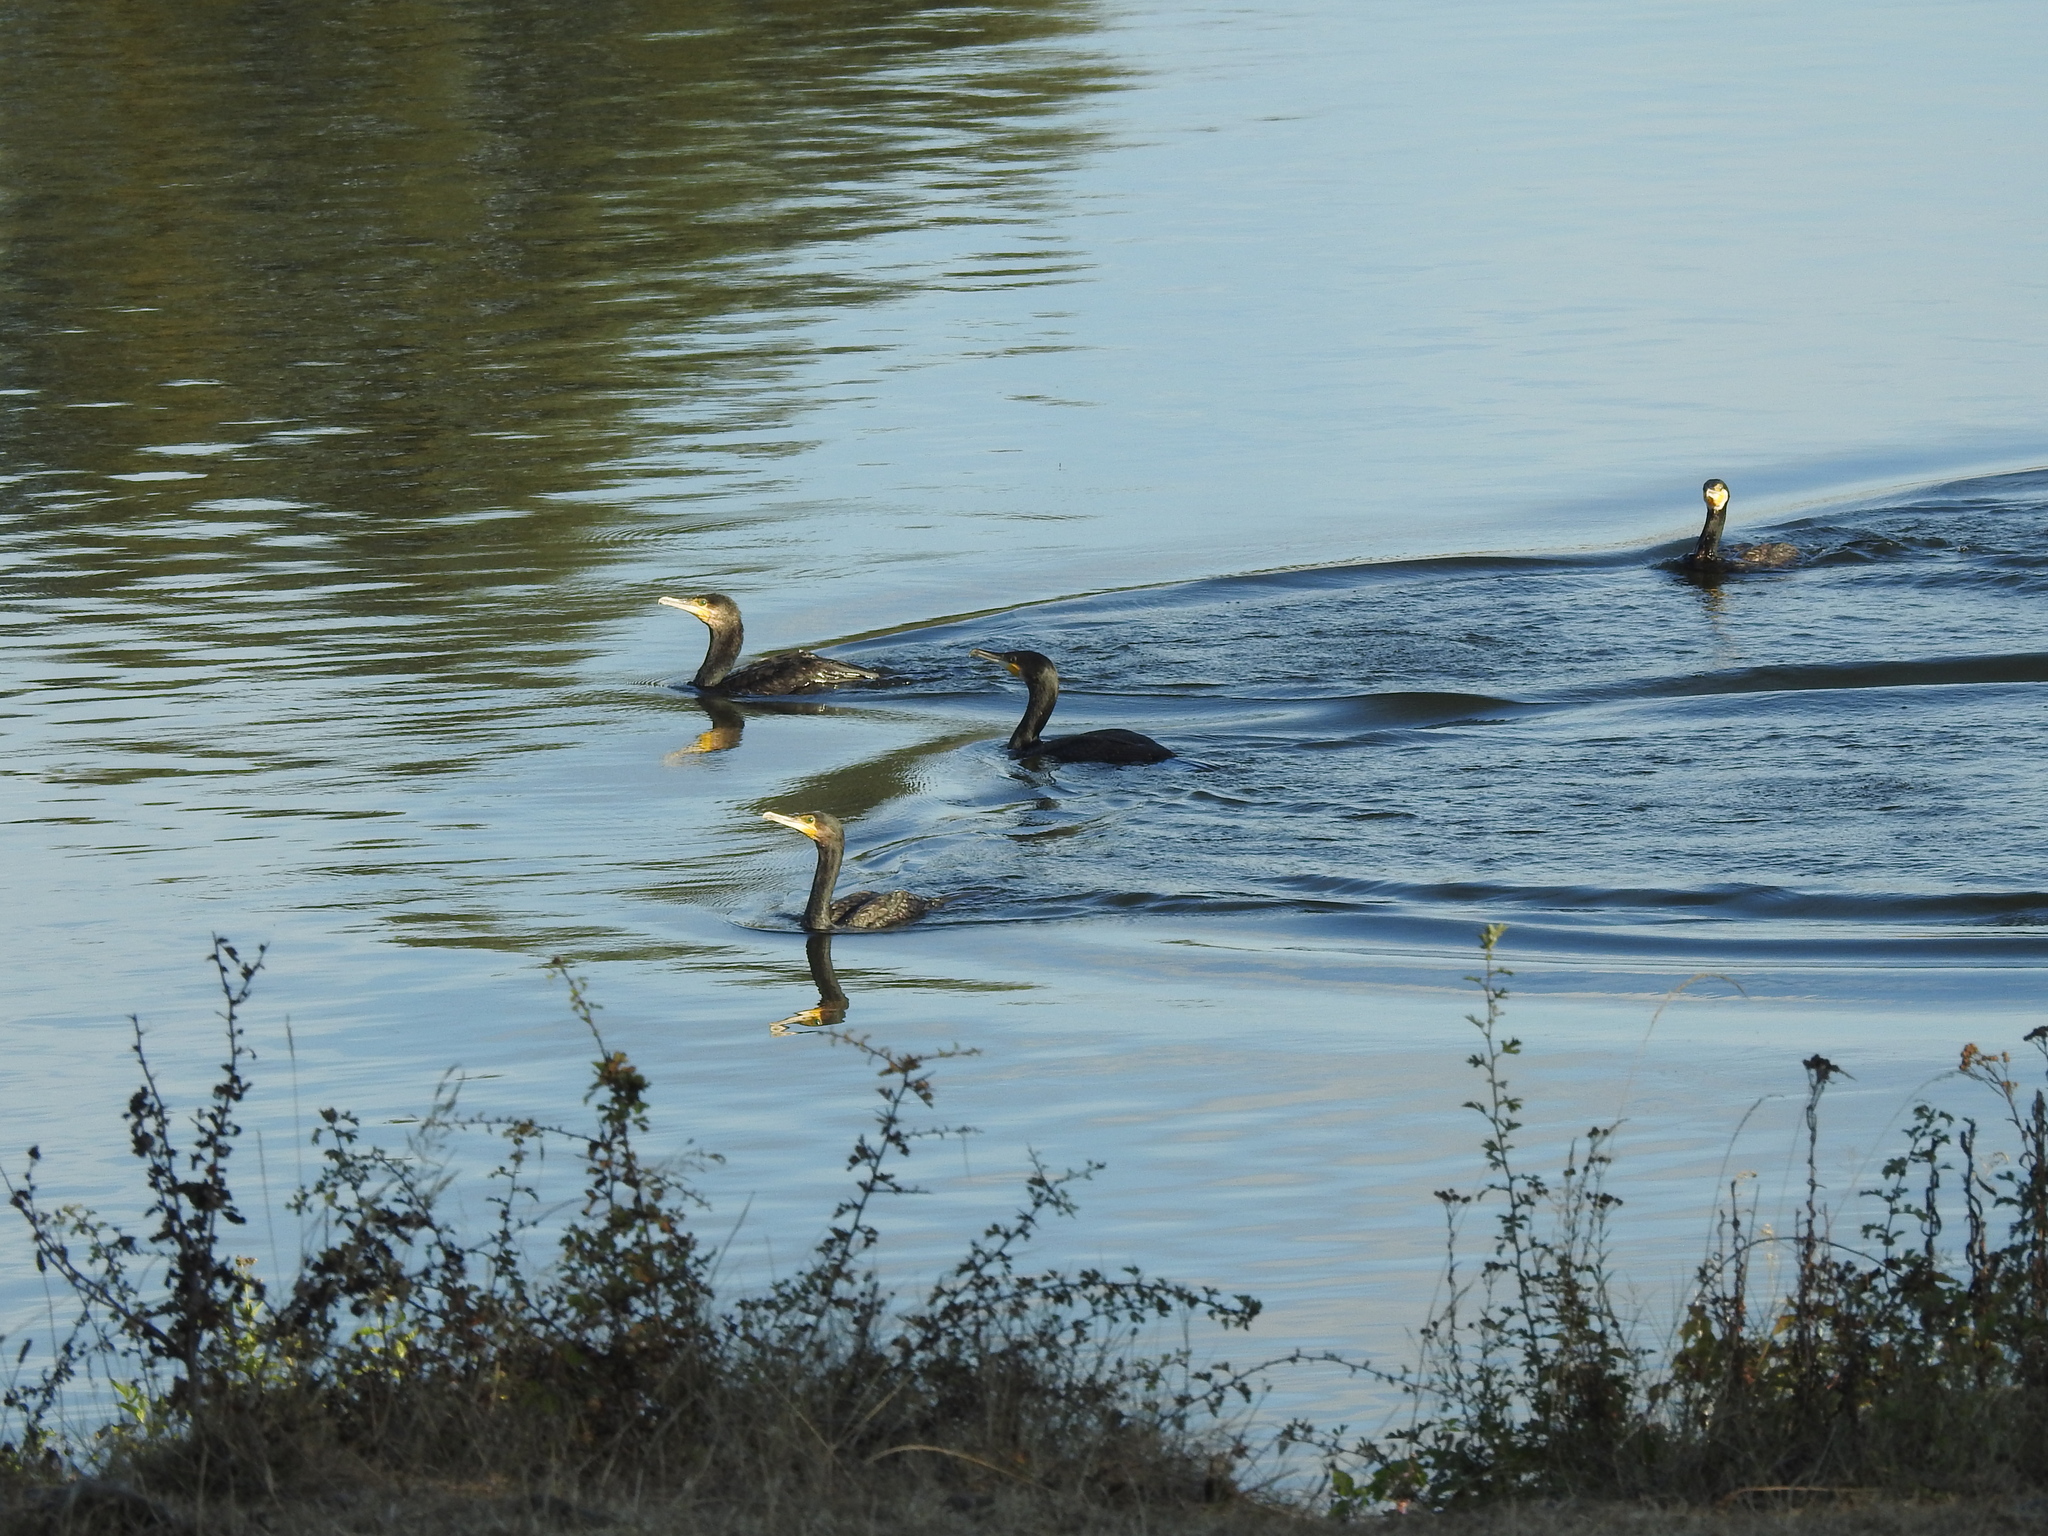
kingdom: Animalia
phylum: Chordata
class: Aves
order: Suliformes
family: Phalacrocoracidae
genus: Phalacrocorax
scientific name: Phalacrocorax carbo
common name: Great cormorant
